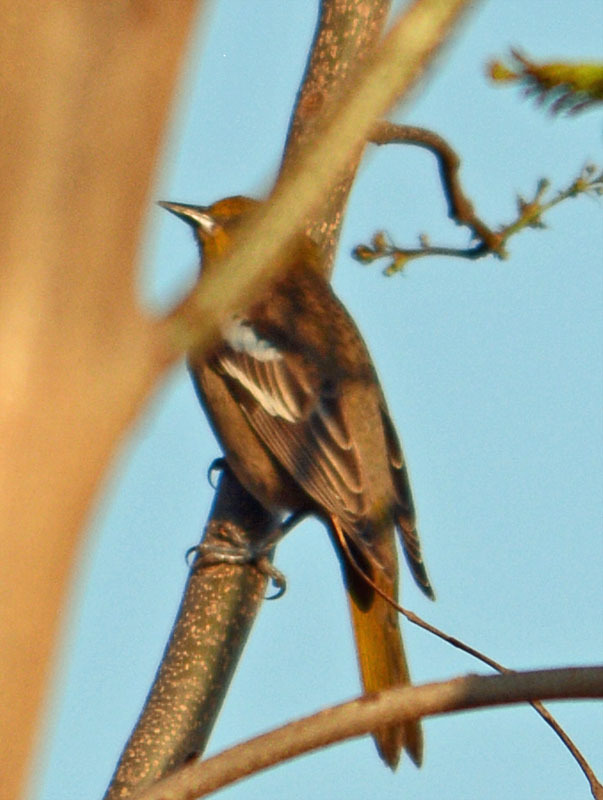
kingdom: Animalia
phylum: Chordata
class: Aves
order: Passeriformes
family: Icteridae
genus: Icterus
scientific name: Icterus abeillei
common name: Black-backed oriole
